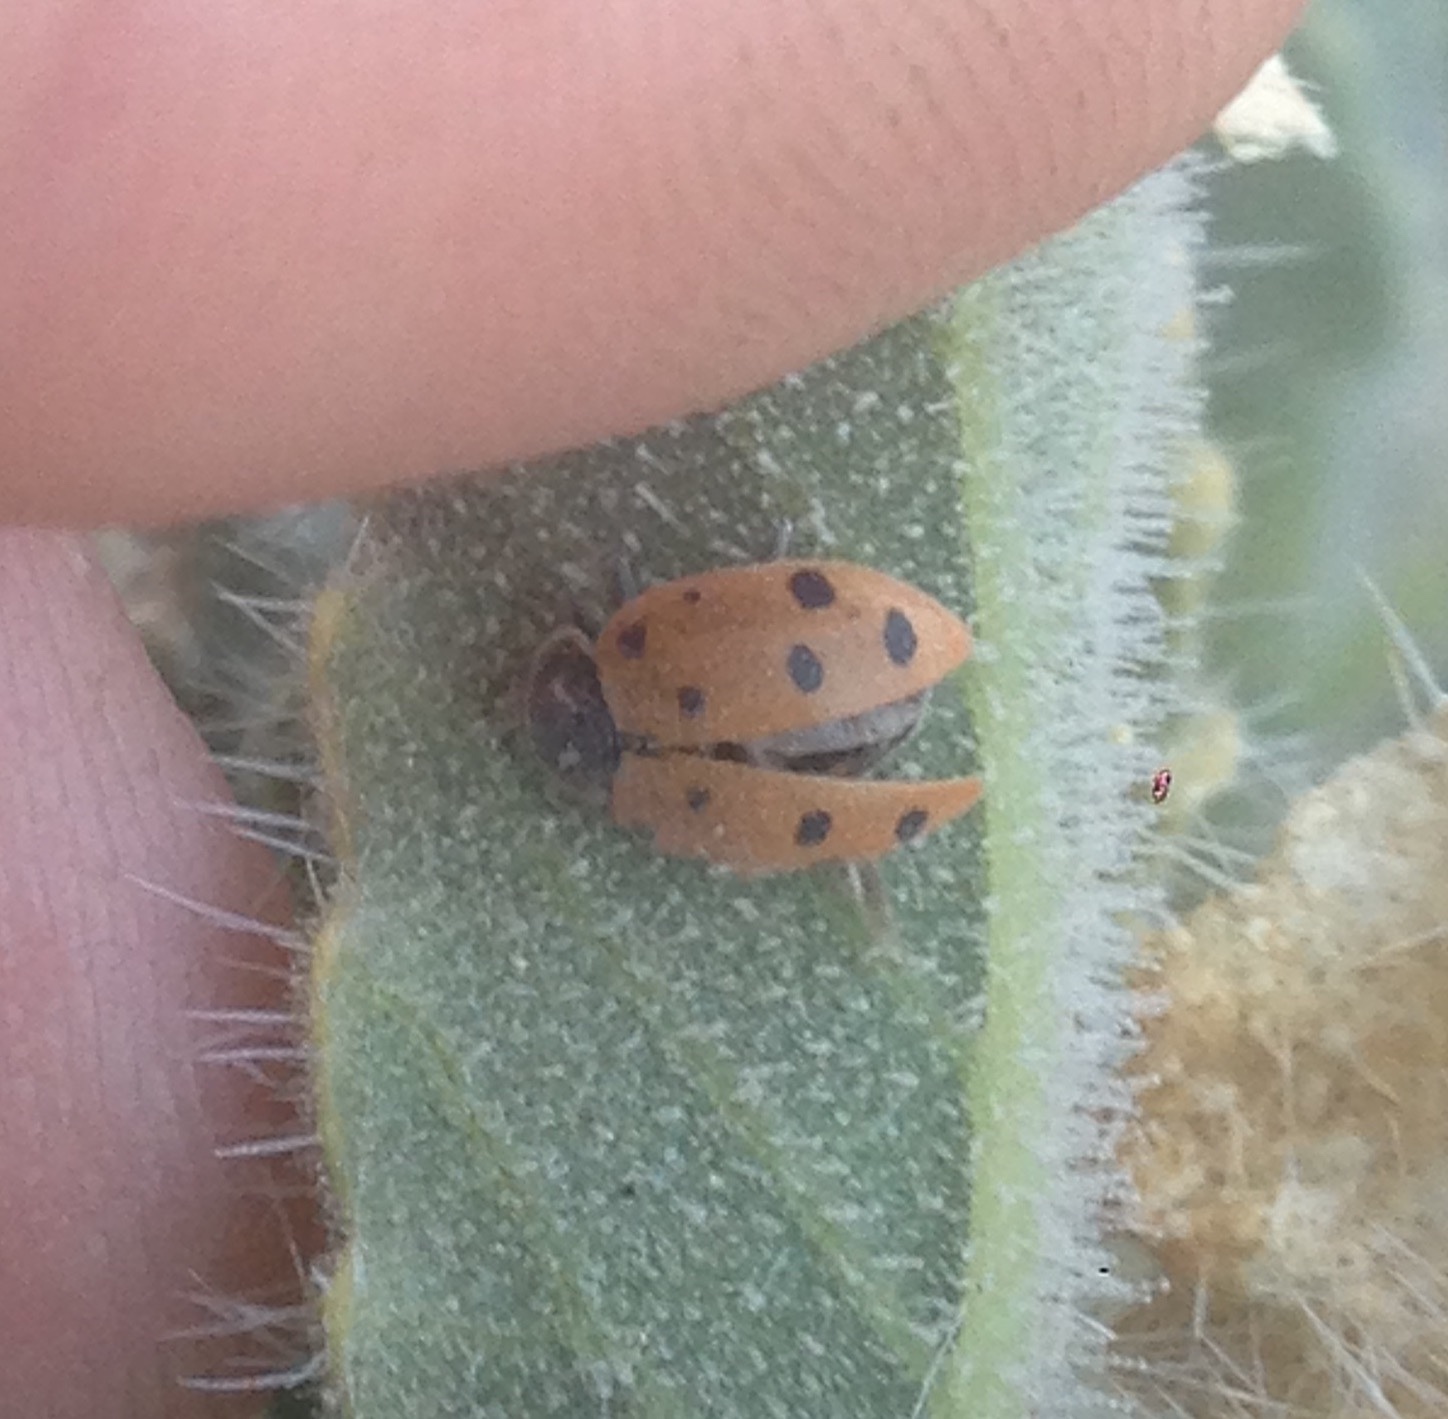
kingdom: Animalia
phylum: Arthropoda
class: Insecta
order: Coleoptera
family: Coccinellidae
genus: Hippodamia
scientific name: Hippodamia convergens
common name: Convergent lady beetle
